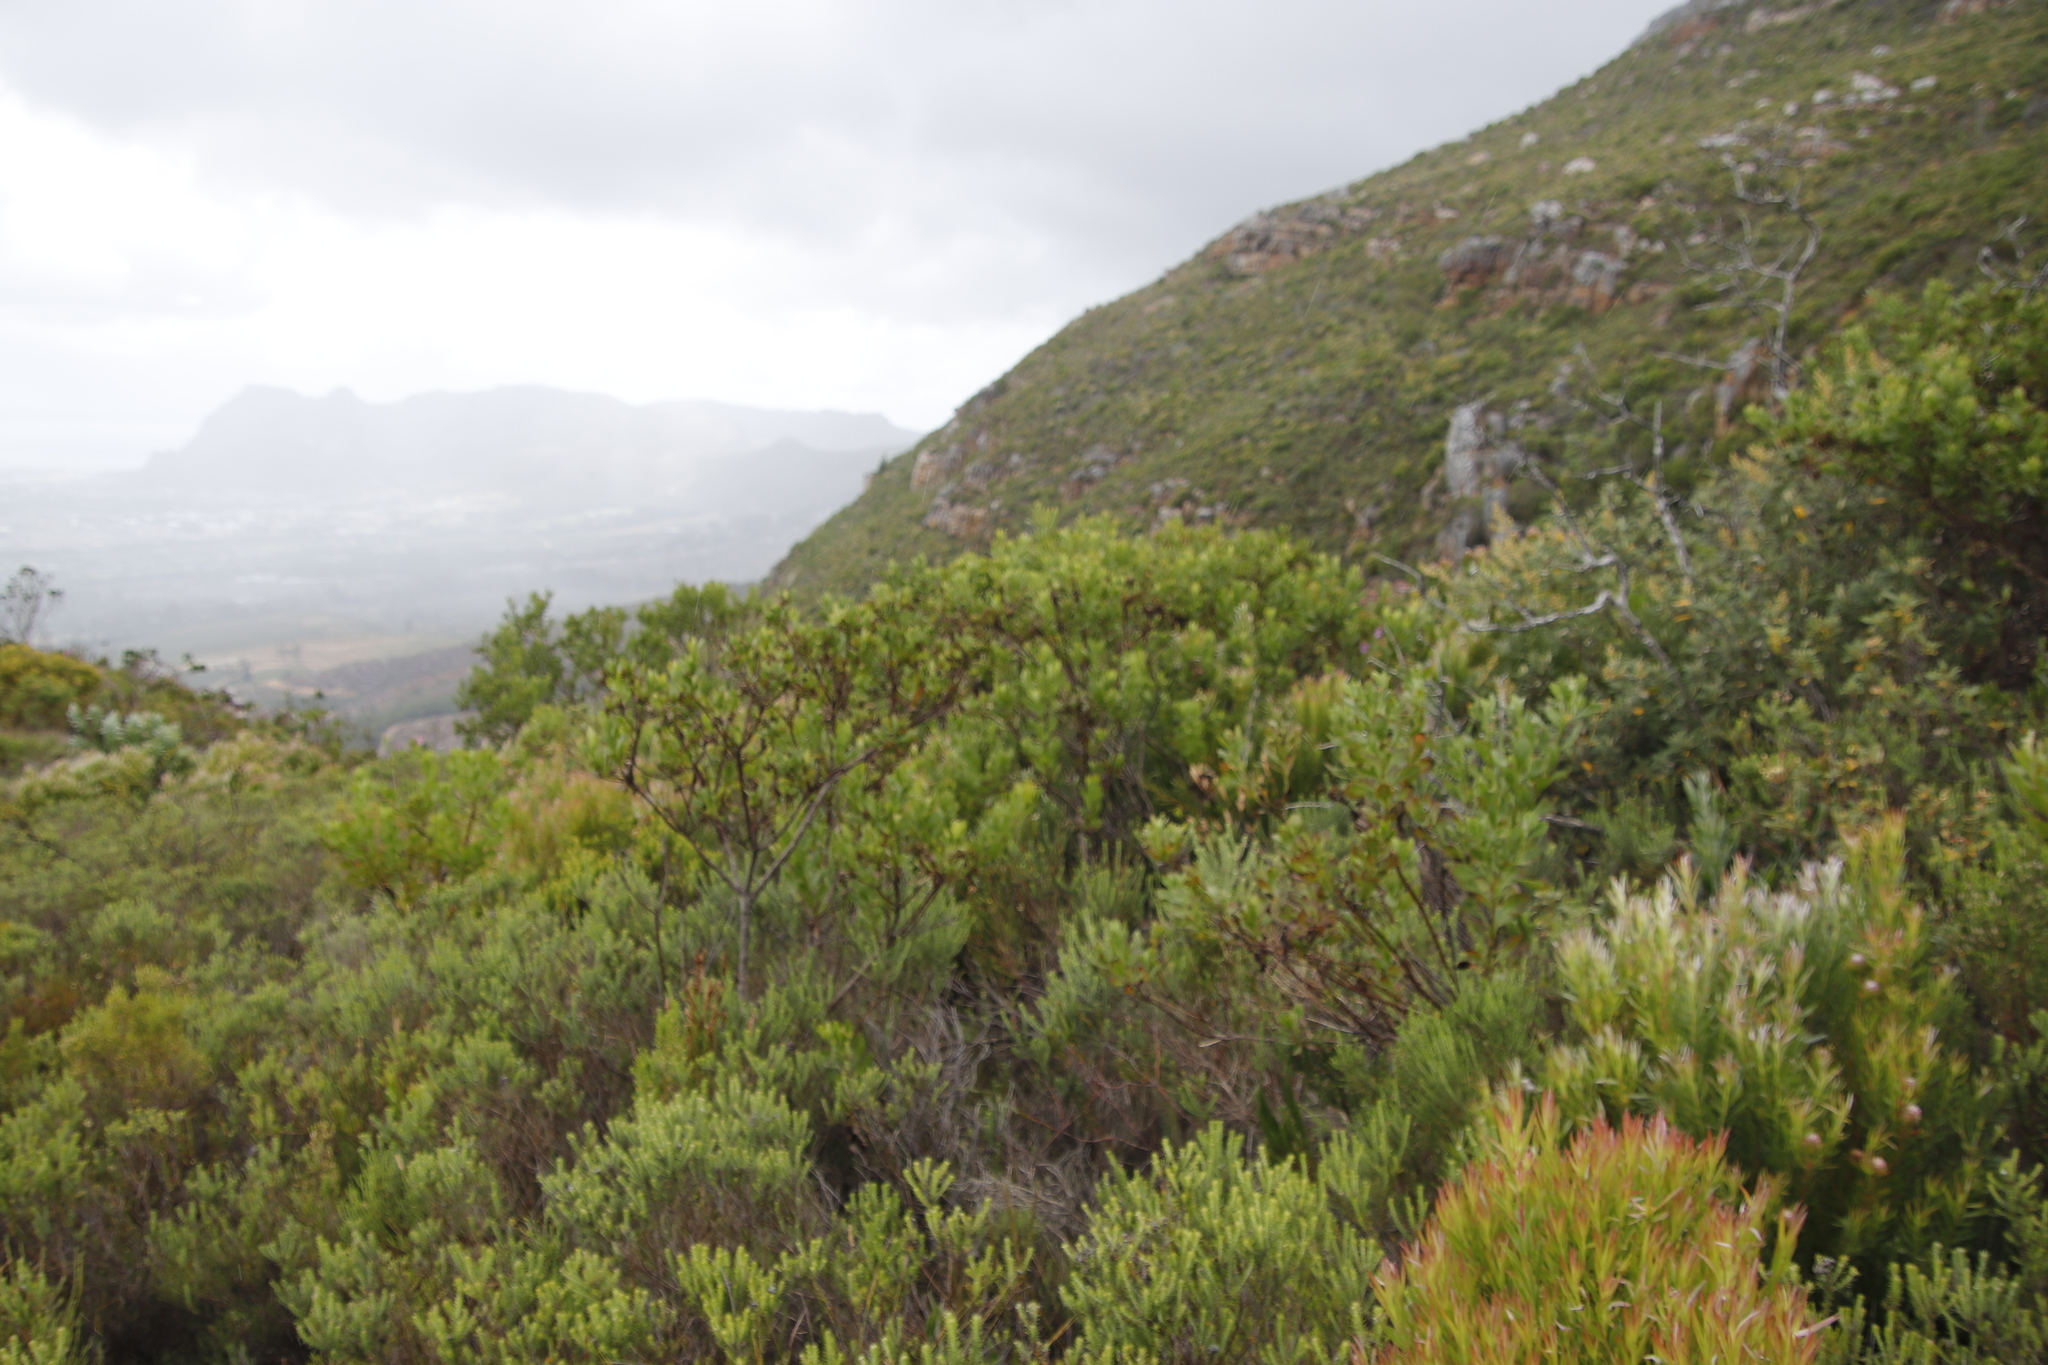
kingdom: Plantae
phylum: Tracheophyta
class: Magnoliopsida
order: Asterales
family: Asteraceae
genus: Osteospermum
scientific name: Osteospermum moniliferum
